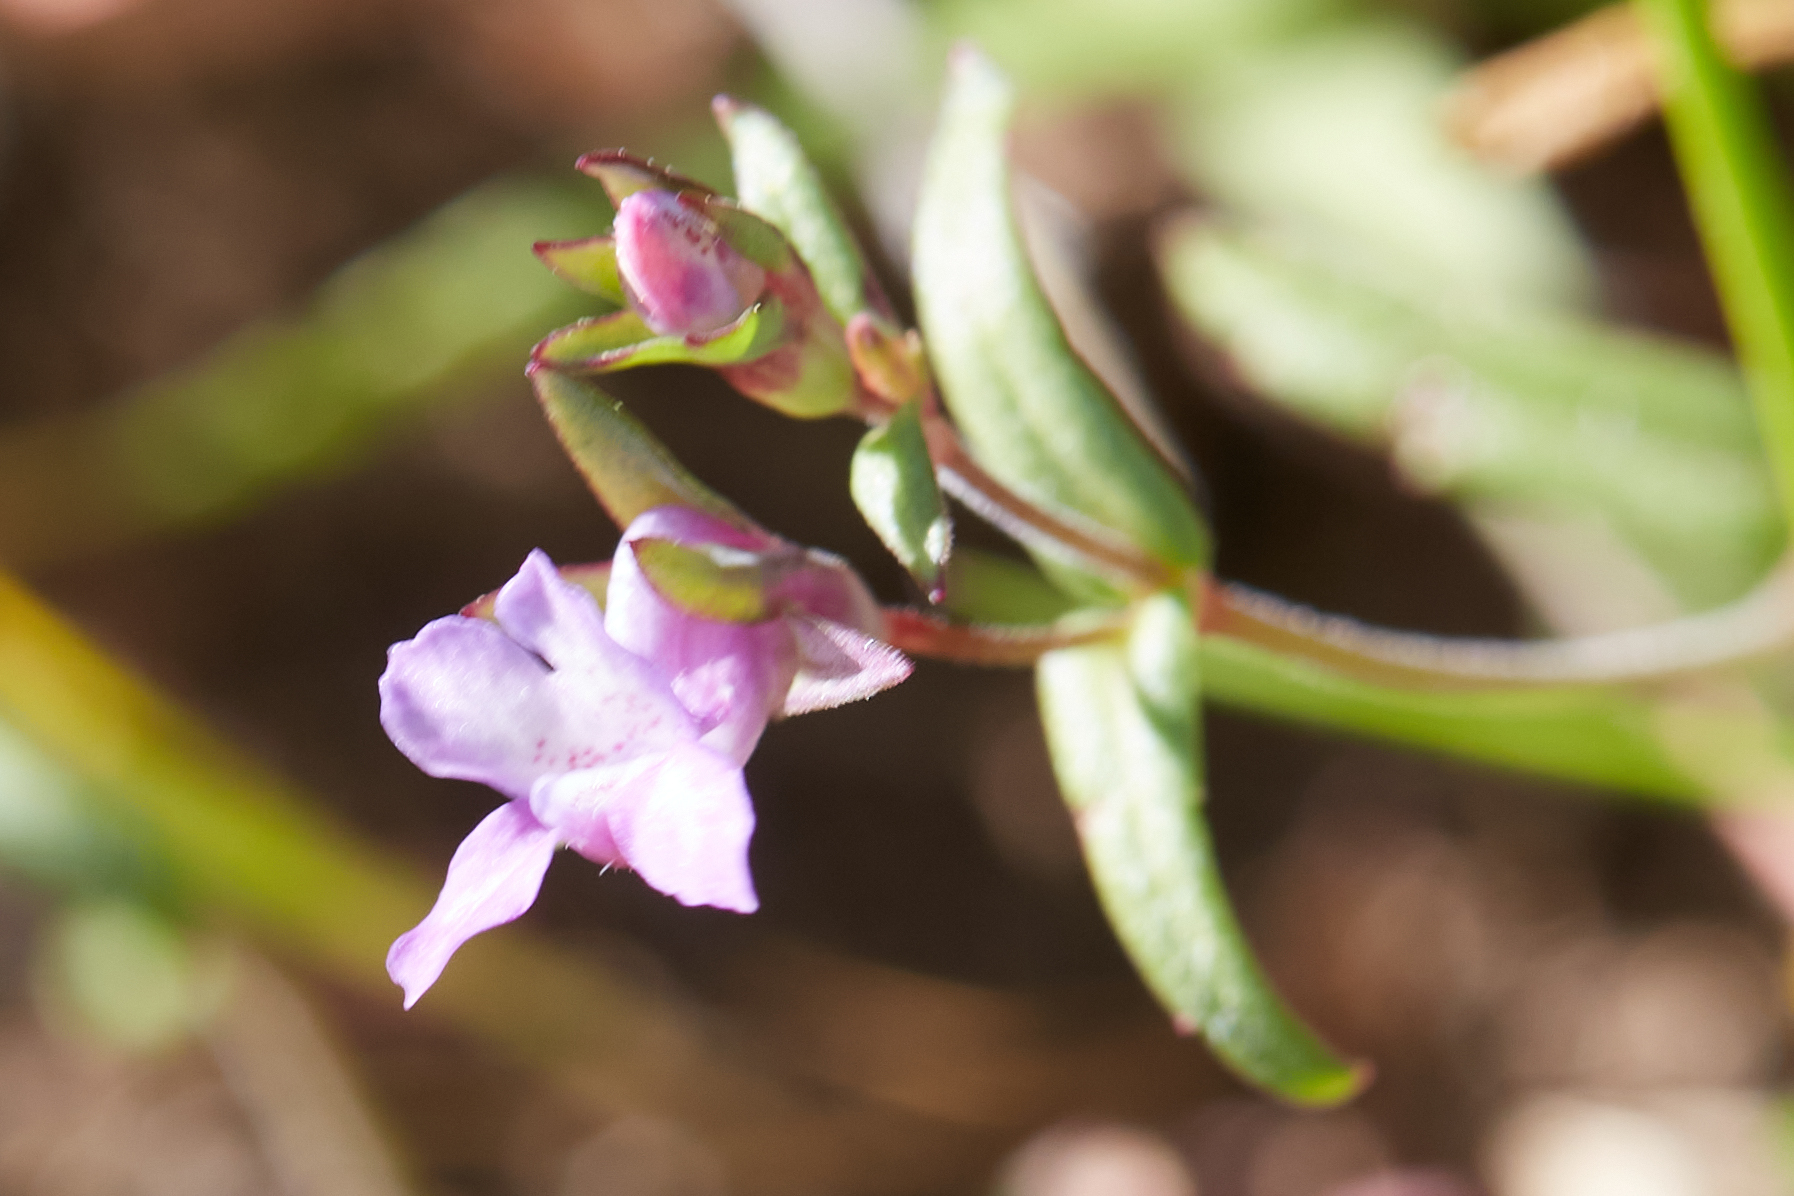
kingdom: Plantae
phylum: Tracheophyta
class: Magnoliopsida
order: Lamiales
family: Plantaginaceae
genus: Collinsia
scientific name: Collinsia sparsiflora
